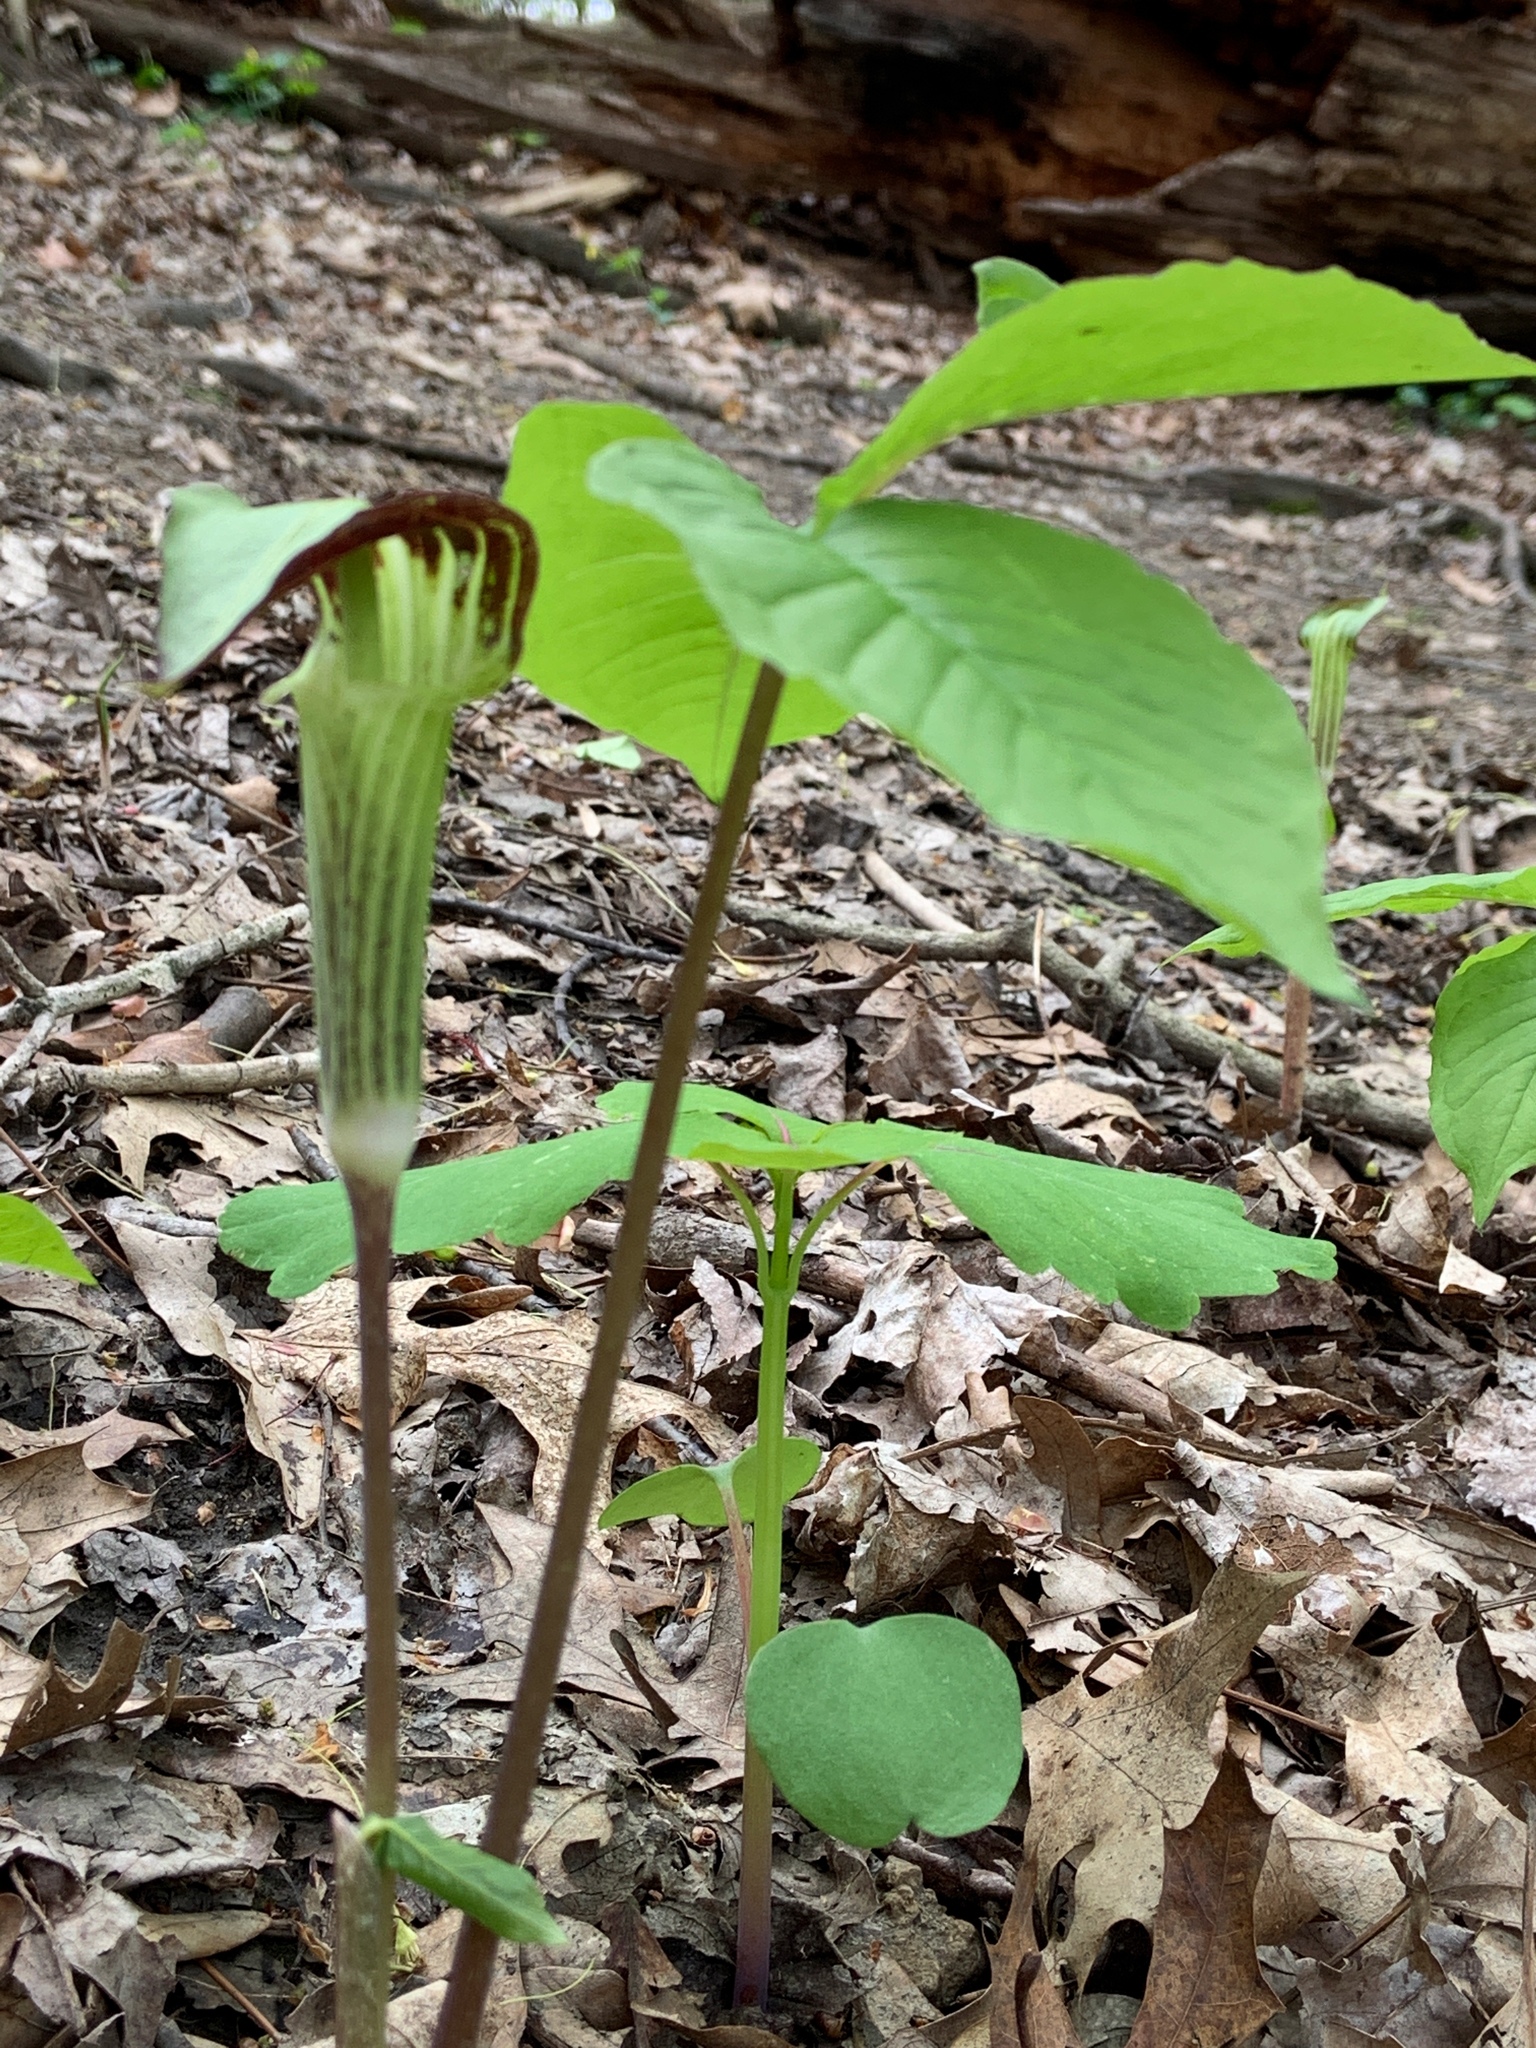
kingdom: Plantae
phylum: Tracheophyta
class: Liliopsida
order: Alismatales
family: Araceae
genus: Arisaema
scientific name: Arisaema triphyllum
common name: Jack-in-the-pulpit
